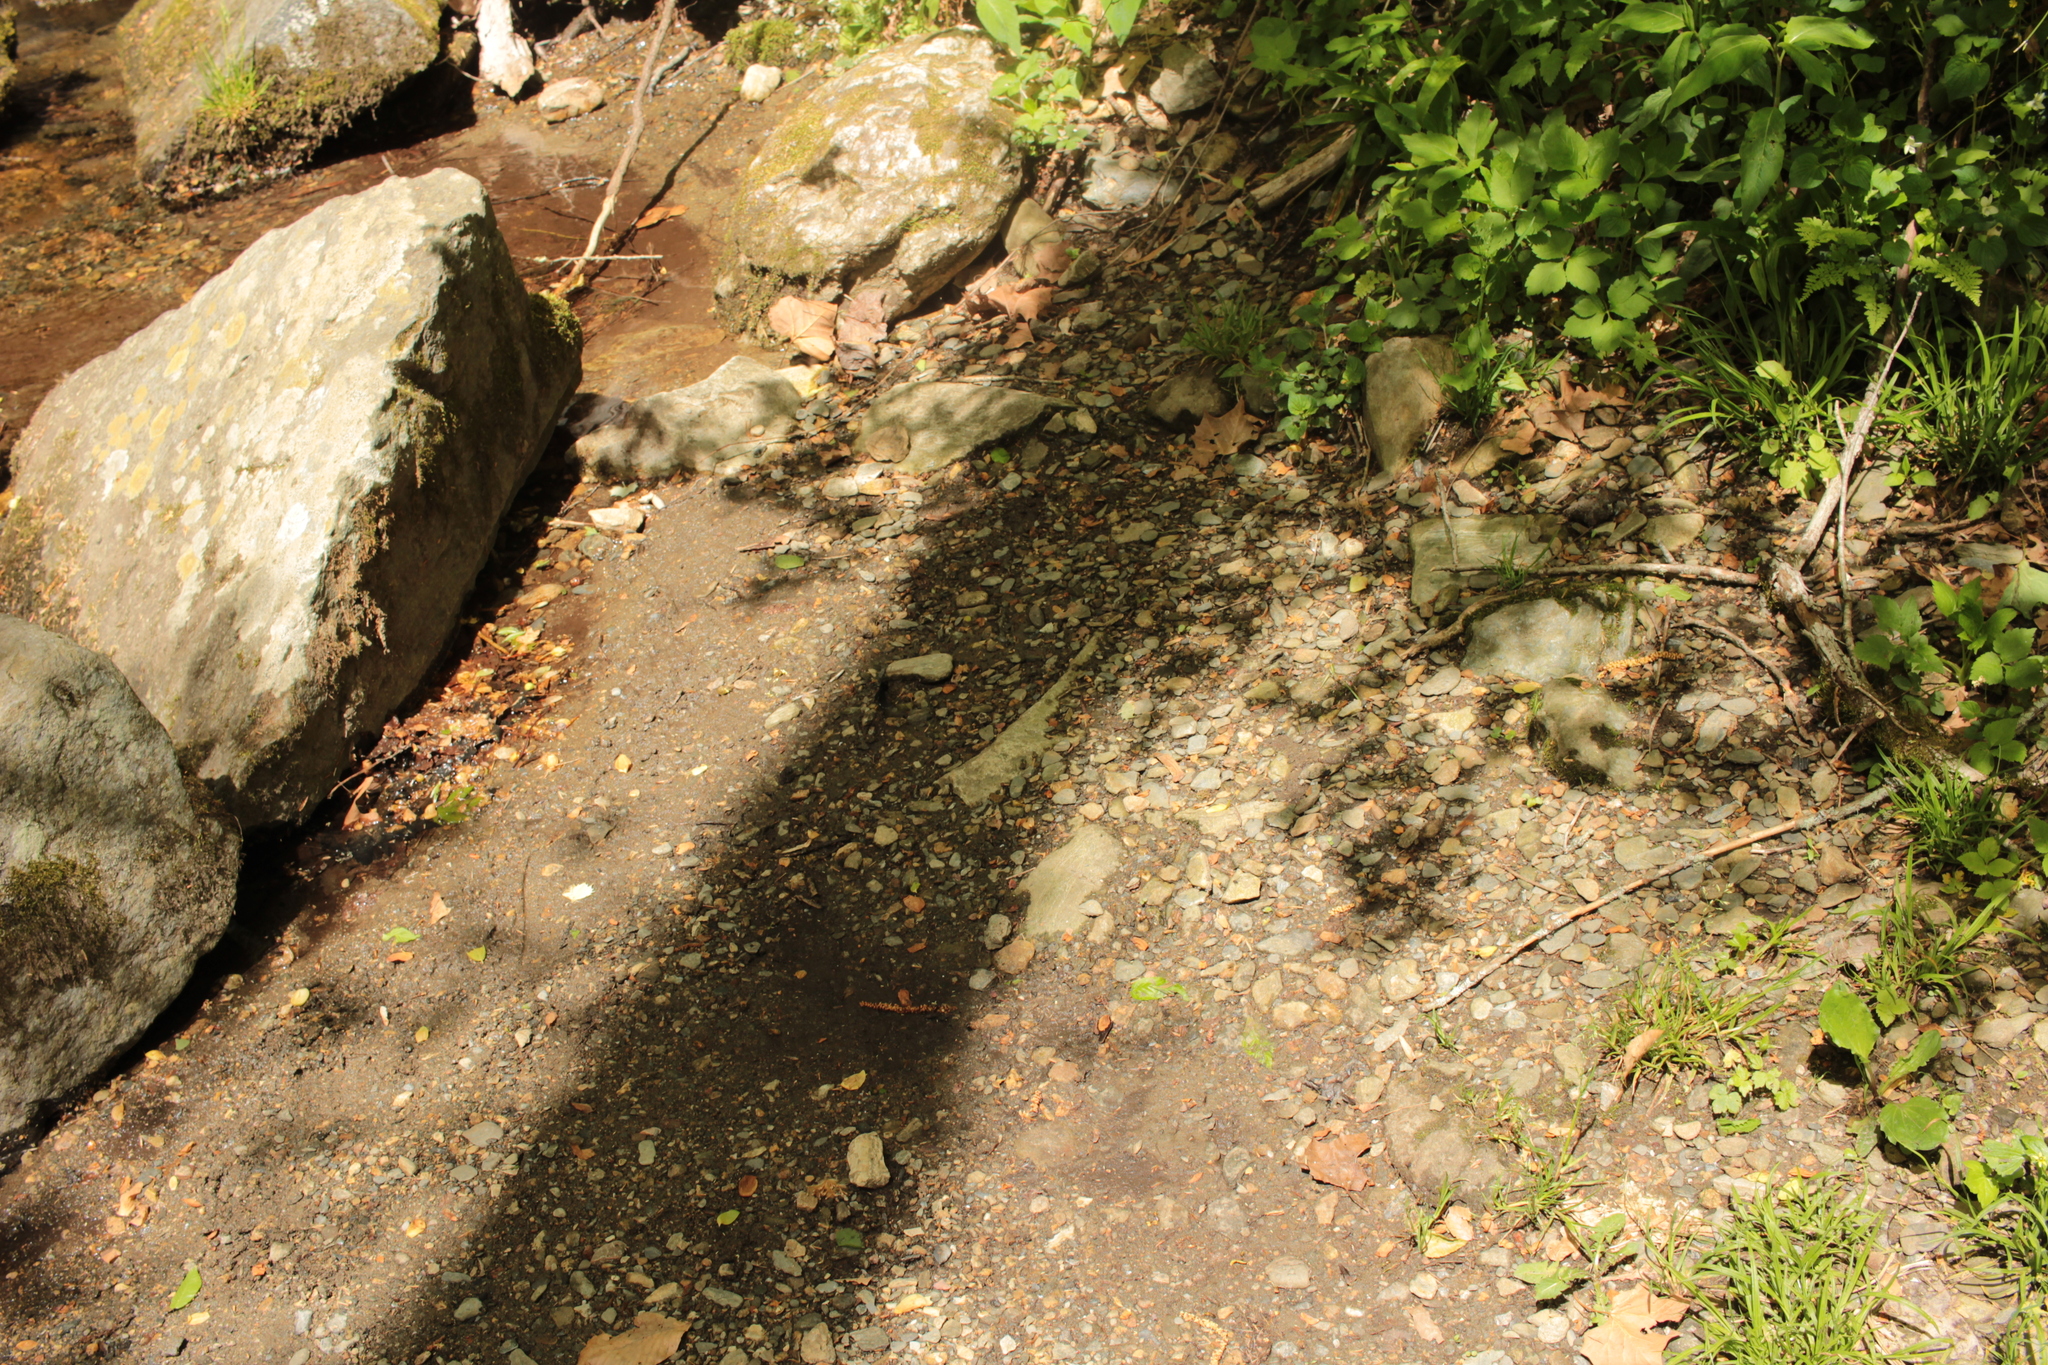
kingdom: Animalia
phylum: Arthropoda
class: Insecta
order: Lepidoptera
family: Papilionidae
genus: Battus
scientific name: Battus philenor
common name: Pipevine swallowtail
